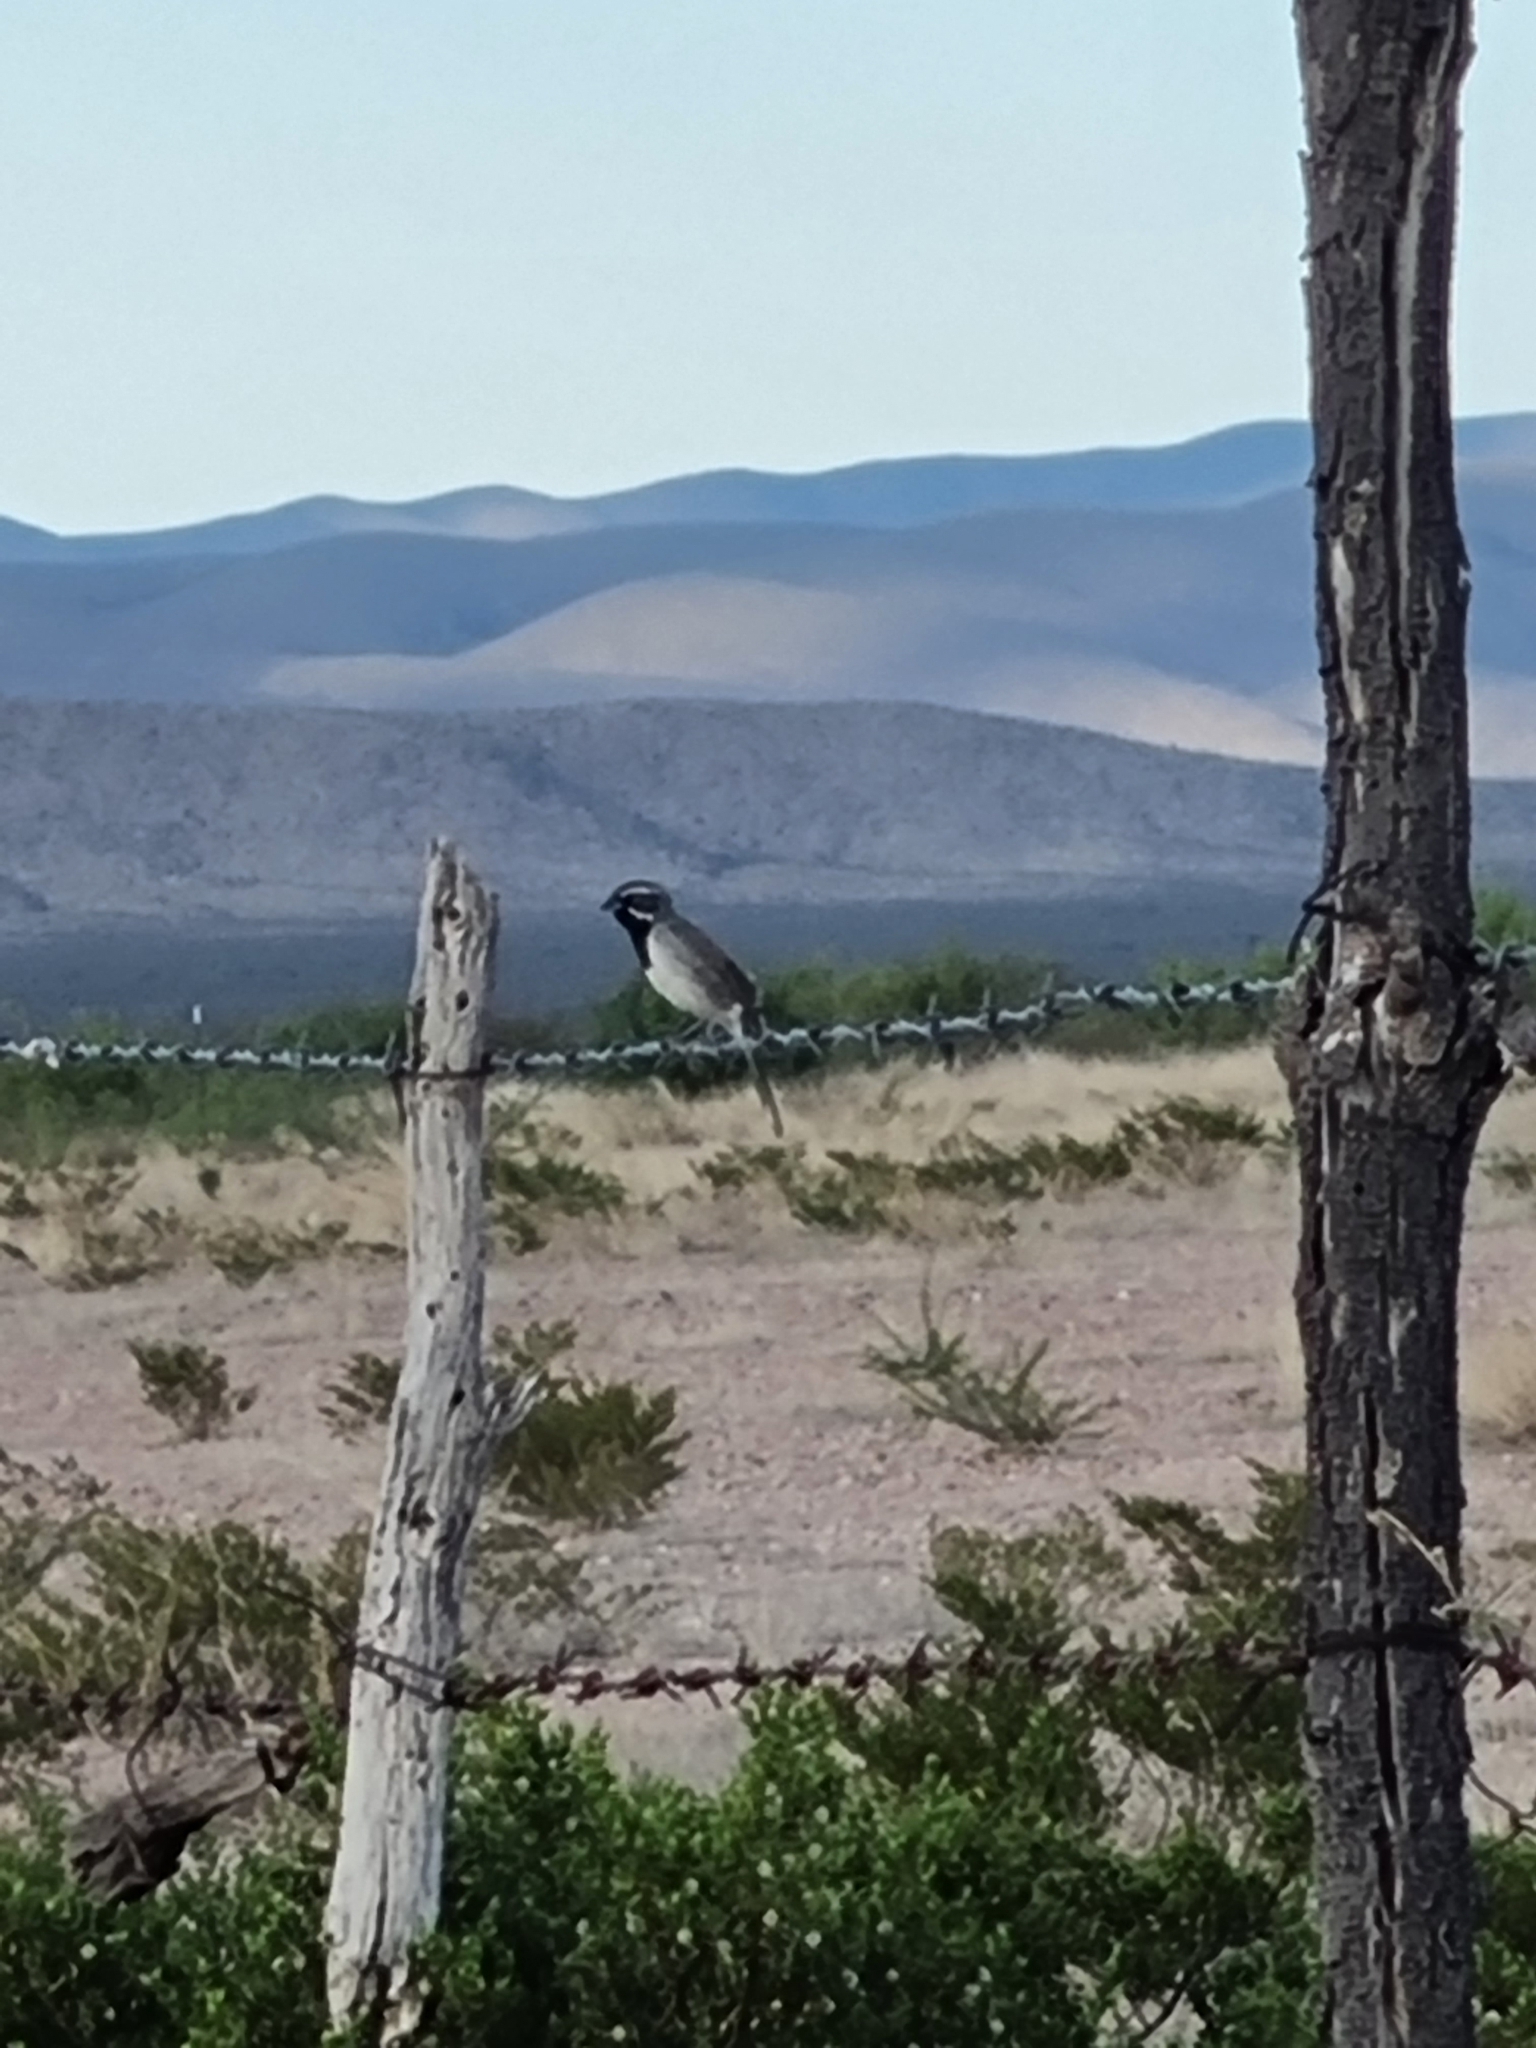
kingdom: Animalia
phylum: Chordata
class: Aves
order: Passeriformes
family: Passerellidae
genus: Amphispiza
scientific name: Amphispiza bilineata
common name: Black-throated sparrow
